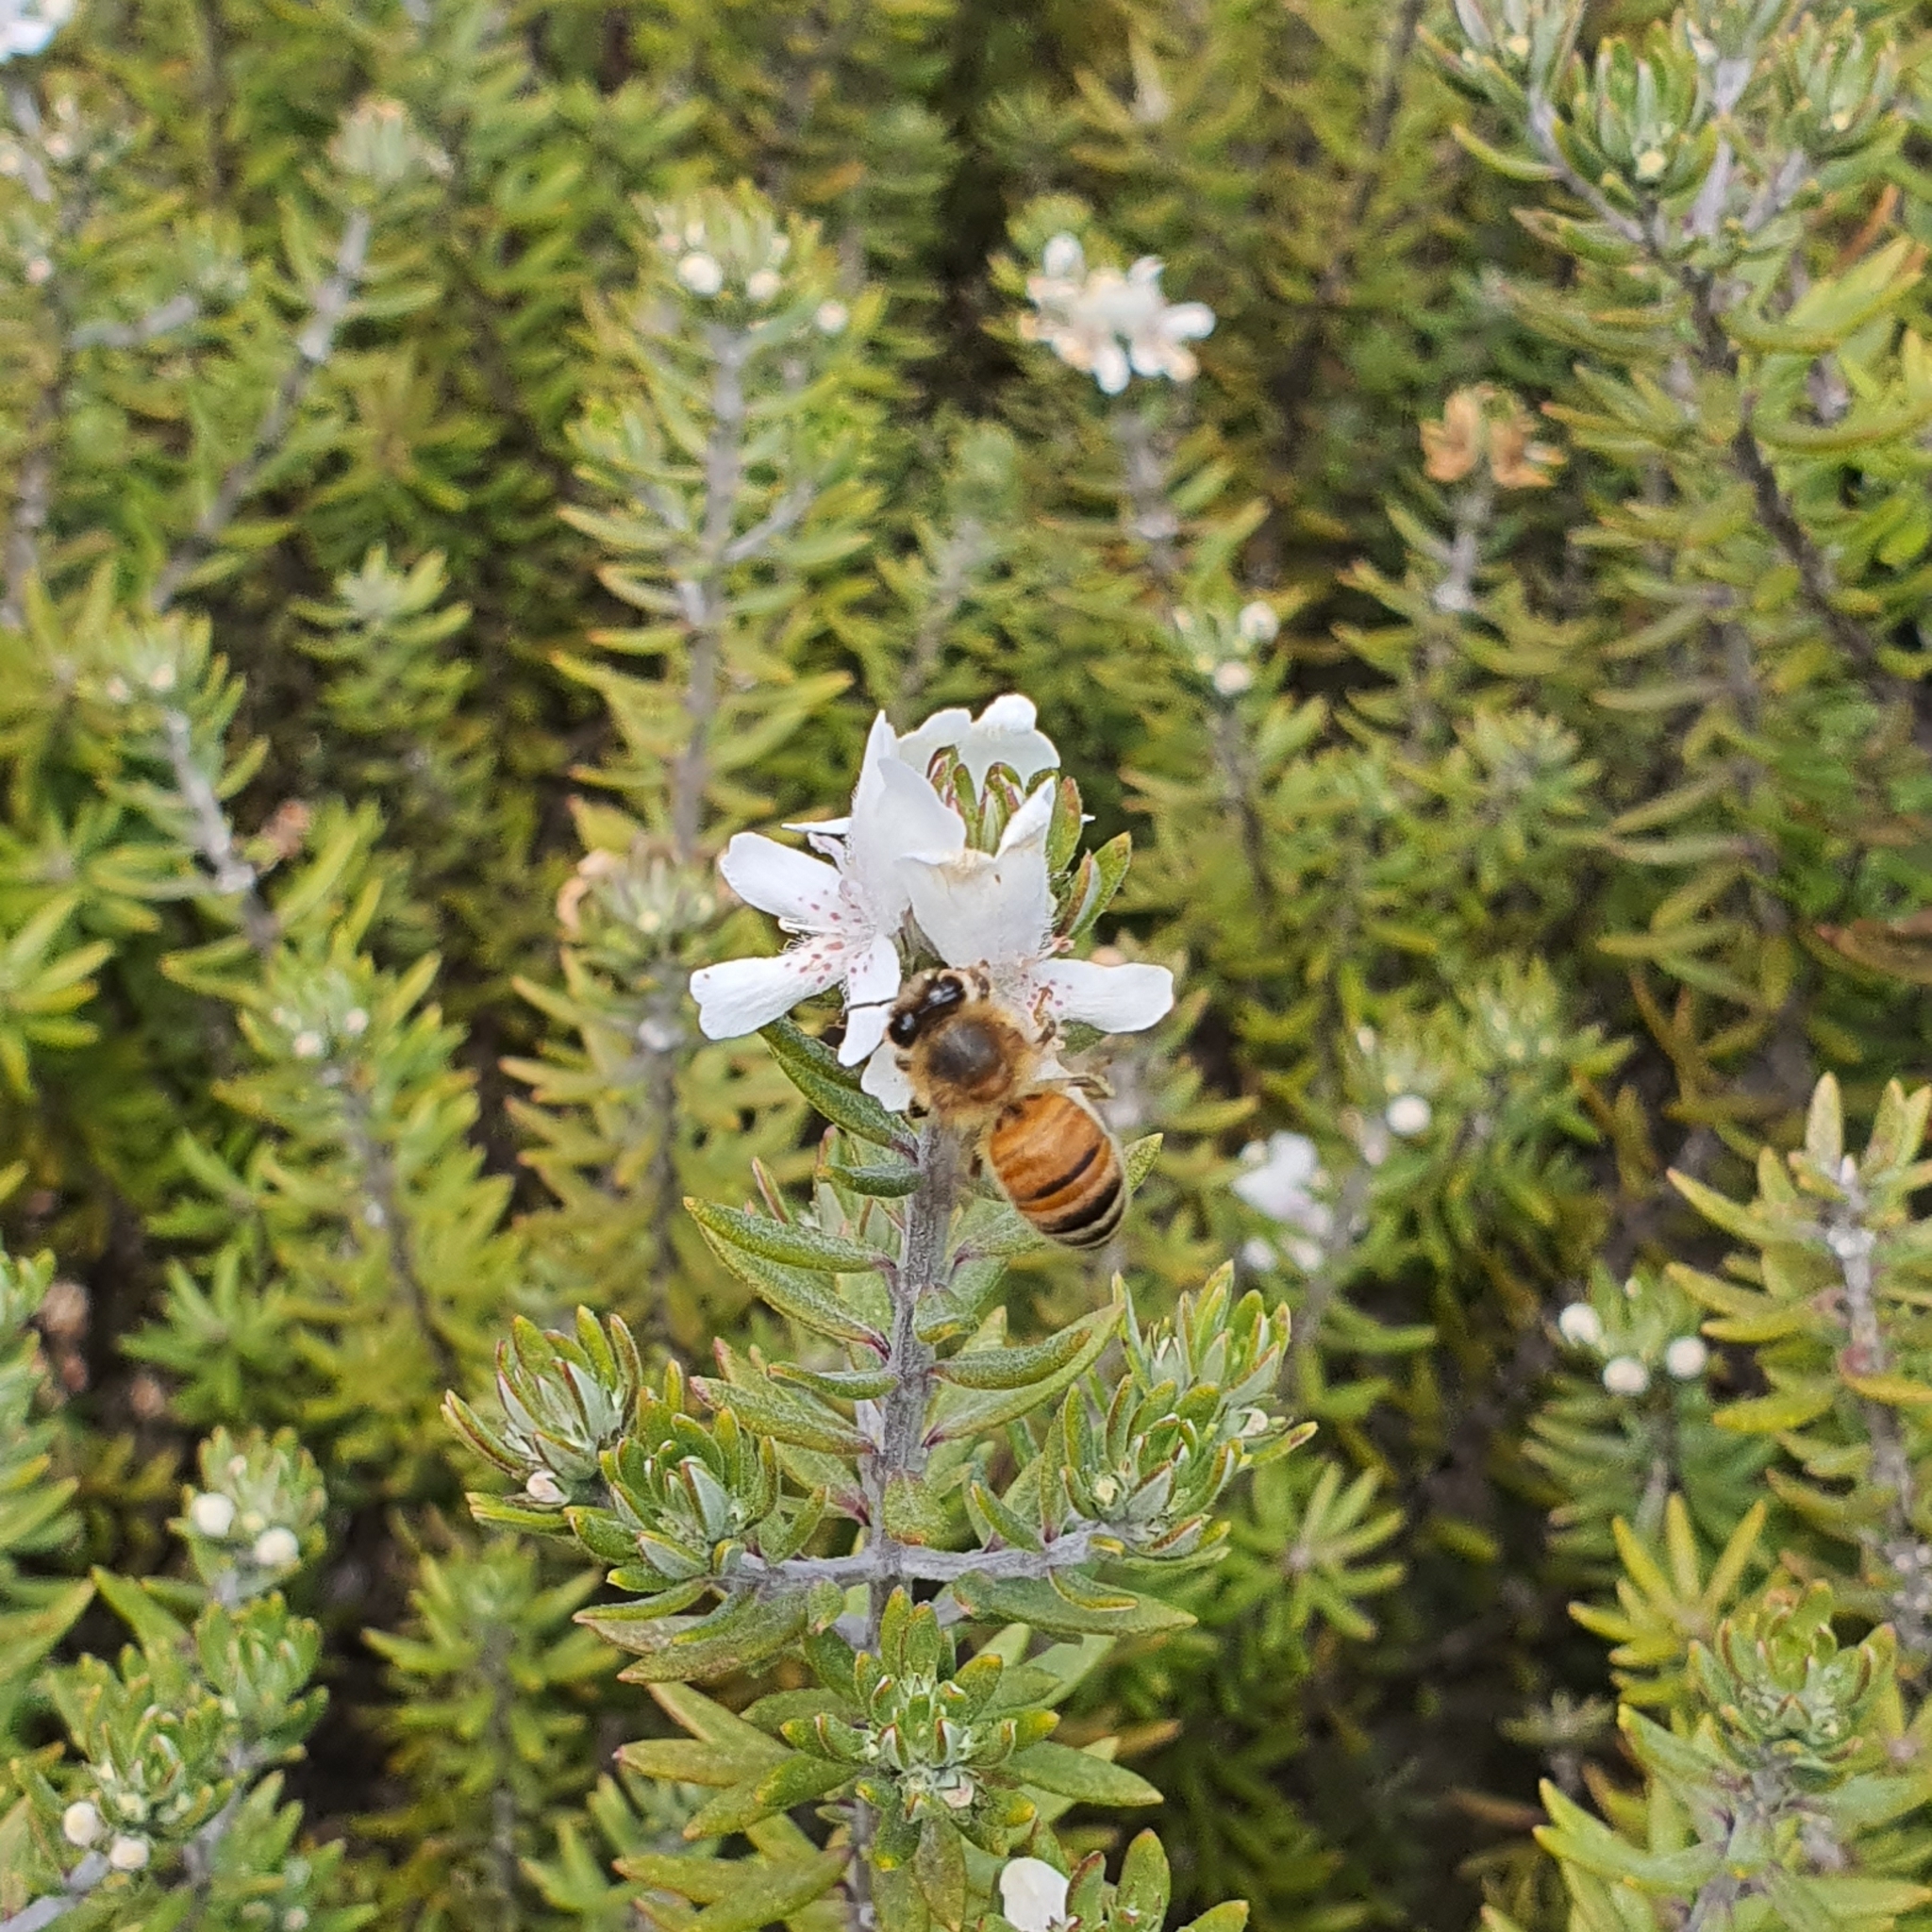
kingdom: Animalia
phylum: Arthropoda
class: Insecta
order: Hymenoptera
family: Apidae
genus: Apis
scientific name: Apis mellifera
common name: Honey bee
